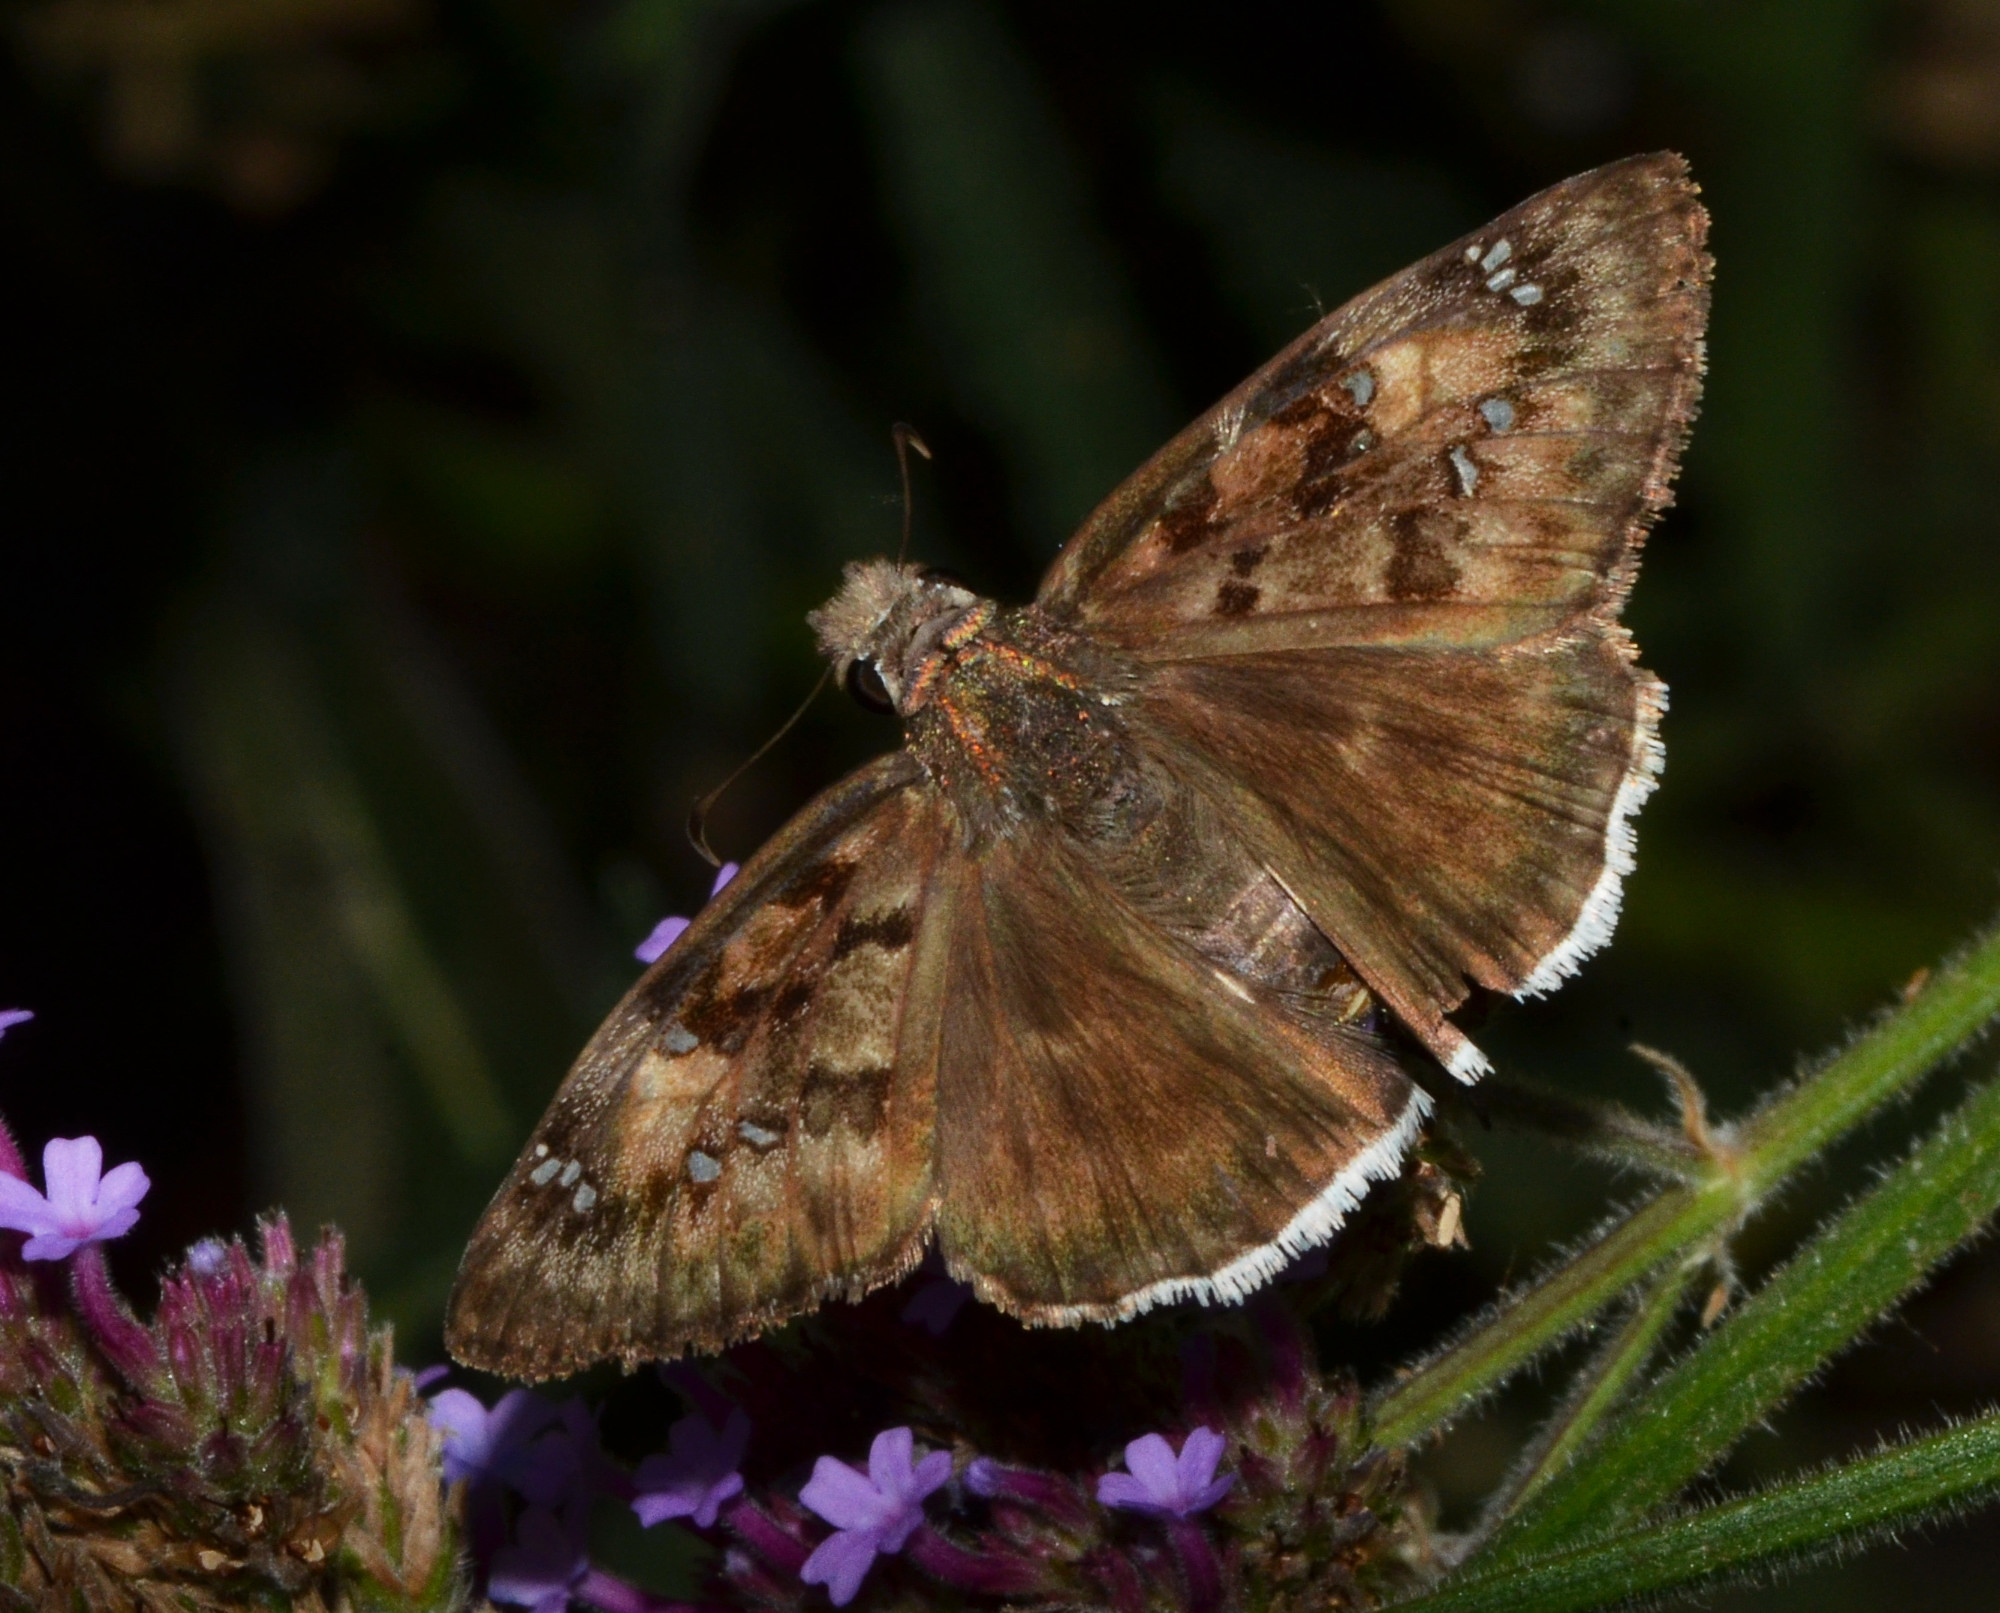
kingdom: Animalia
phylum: Arthropoda
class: Insecta
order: Lepidoptera
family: Hesperiidae
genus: Erynnis
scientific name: Erynnis tristis
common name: Mournful duskywing
